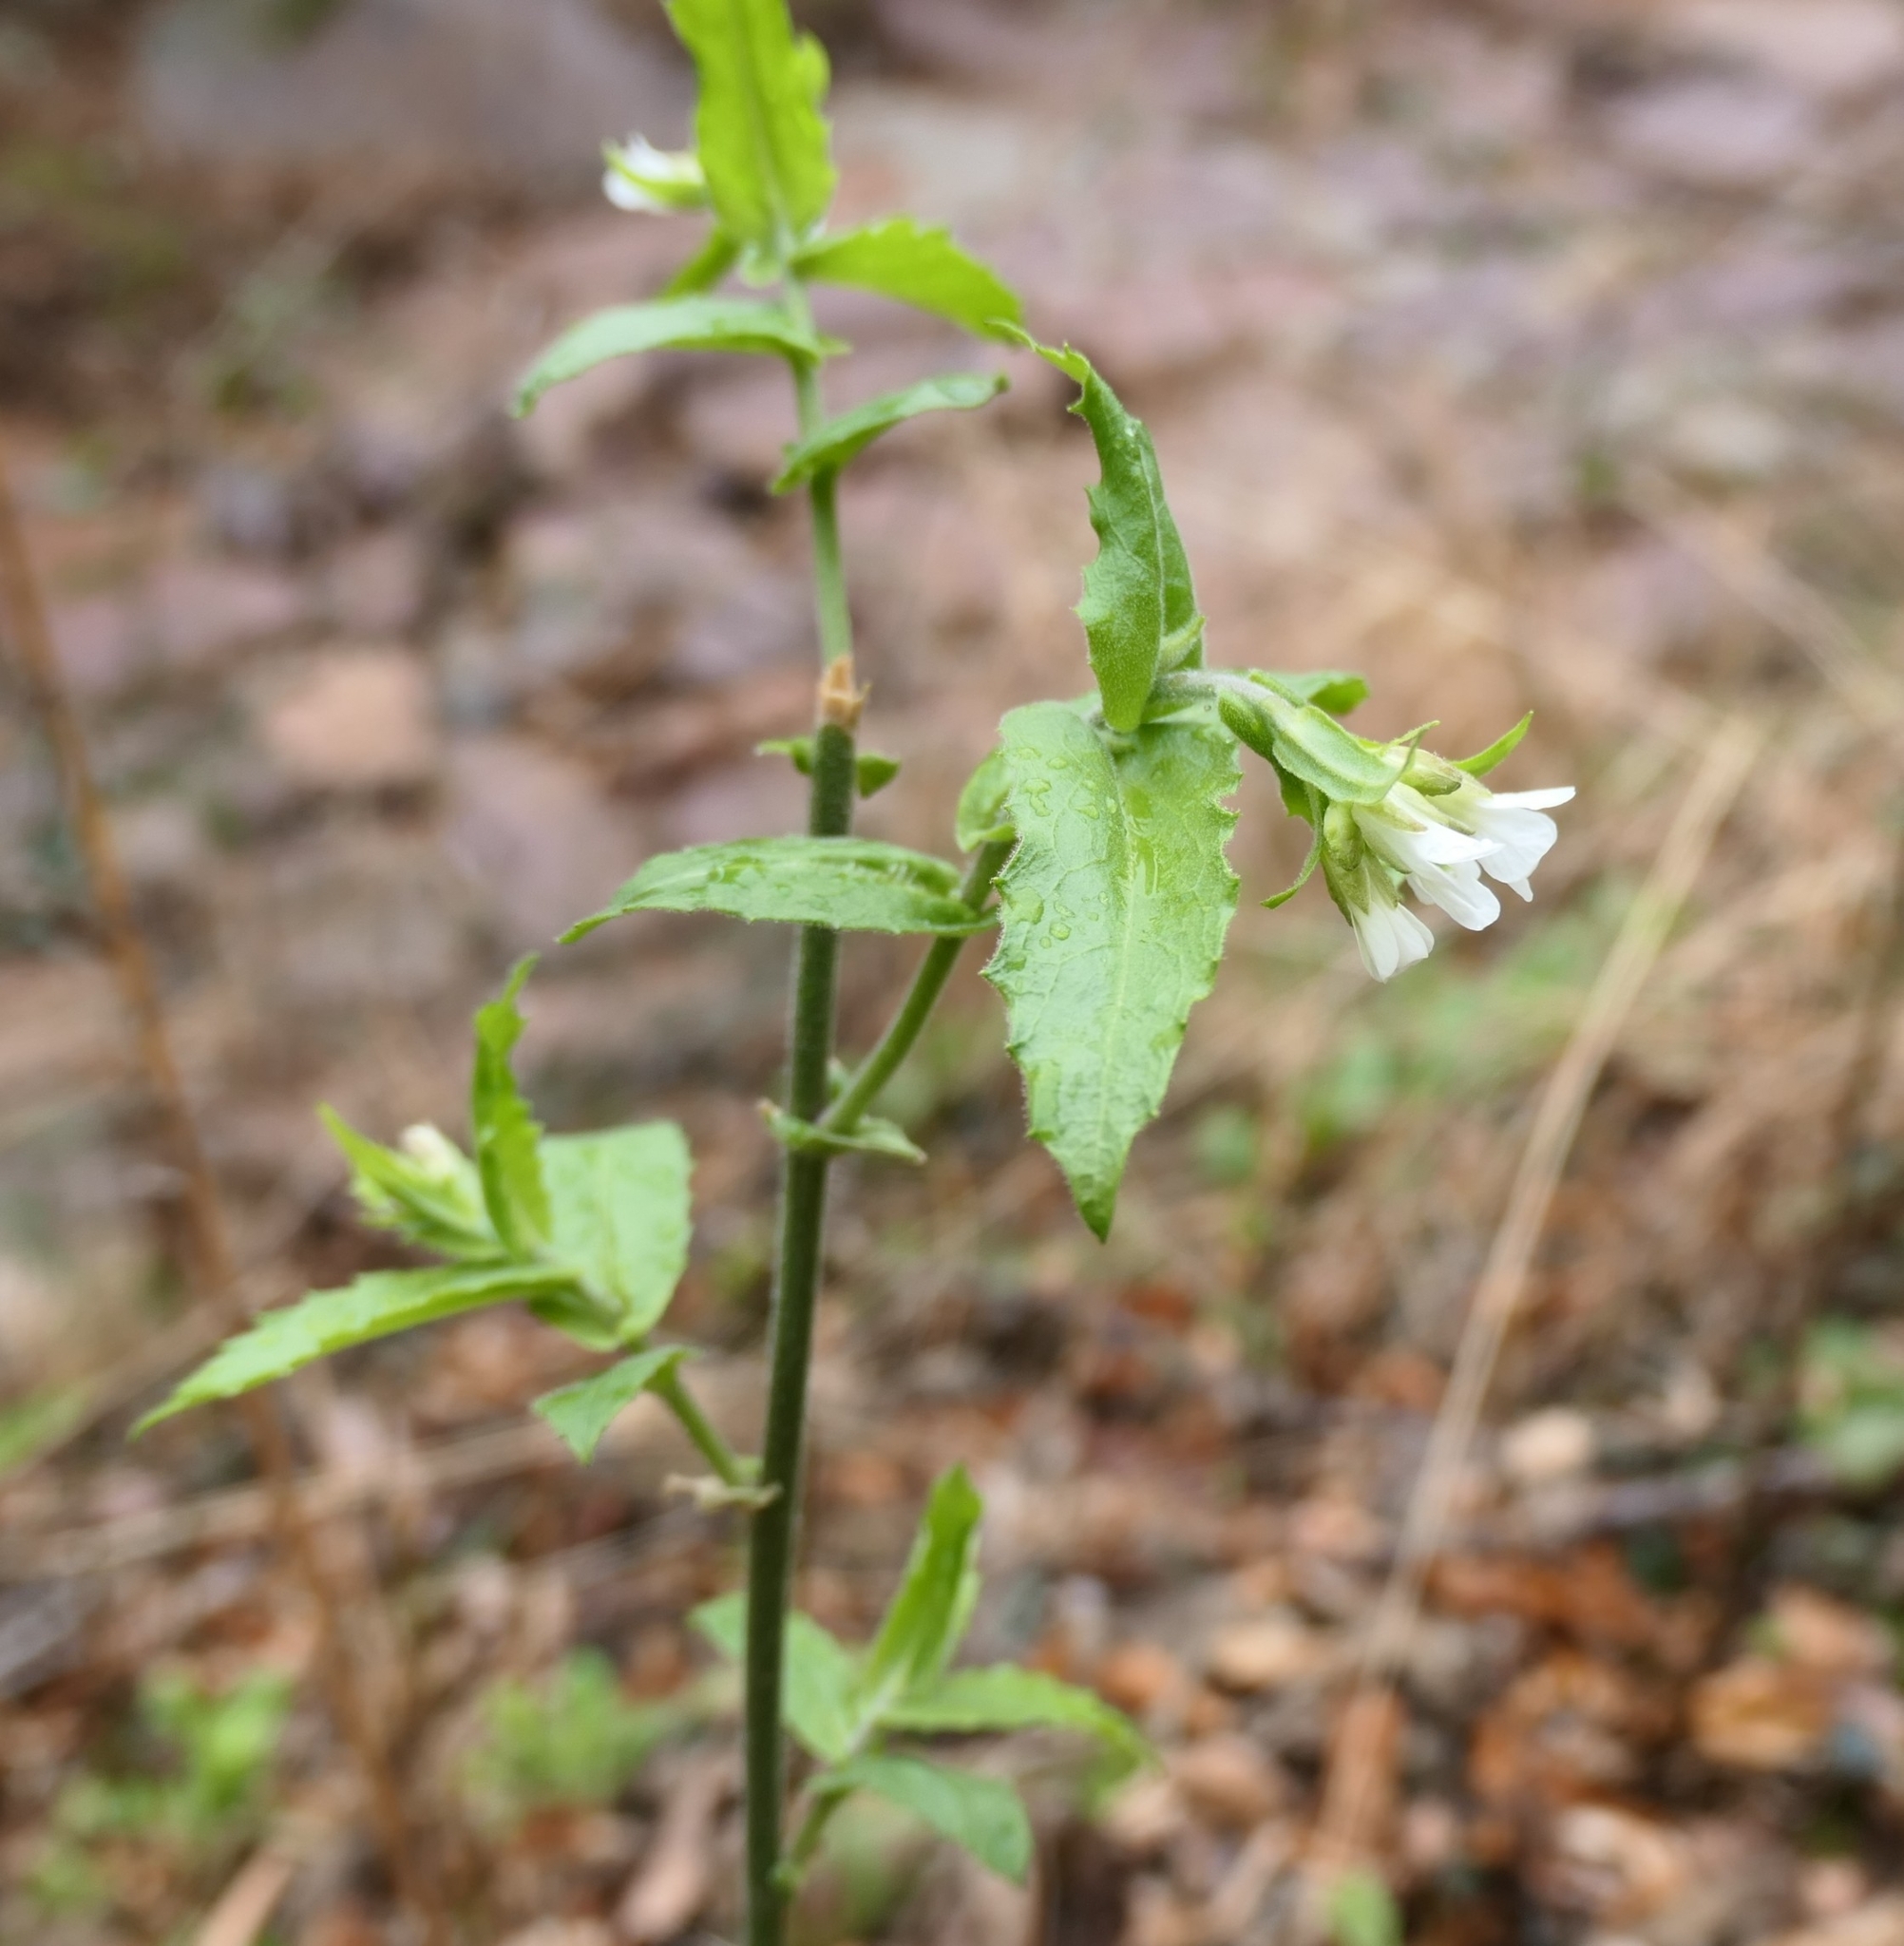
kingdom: Plantae
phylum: Tracheophyta
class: Magnoliopsida
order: Brassicales
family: Brassicaceae
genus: Pseudoturritis
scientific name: Pseudoturritis turrita
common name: Tower cress
